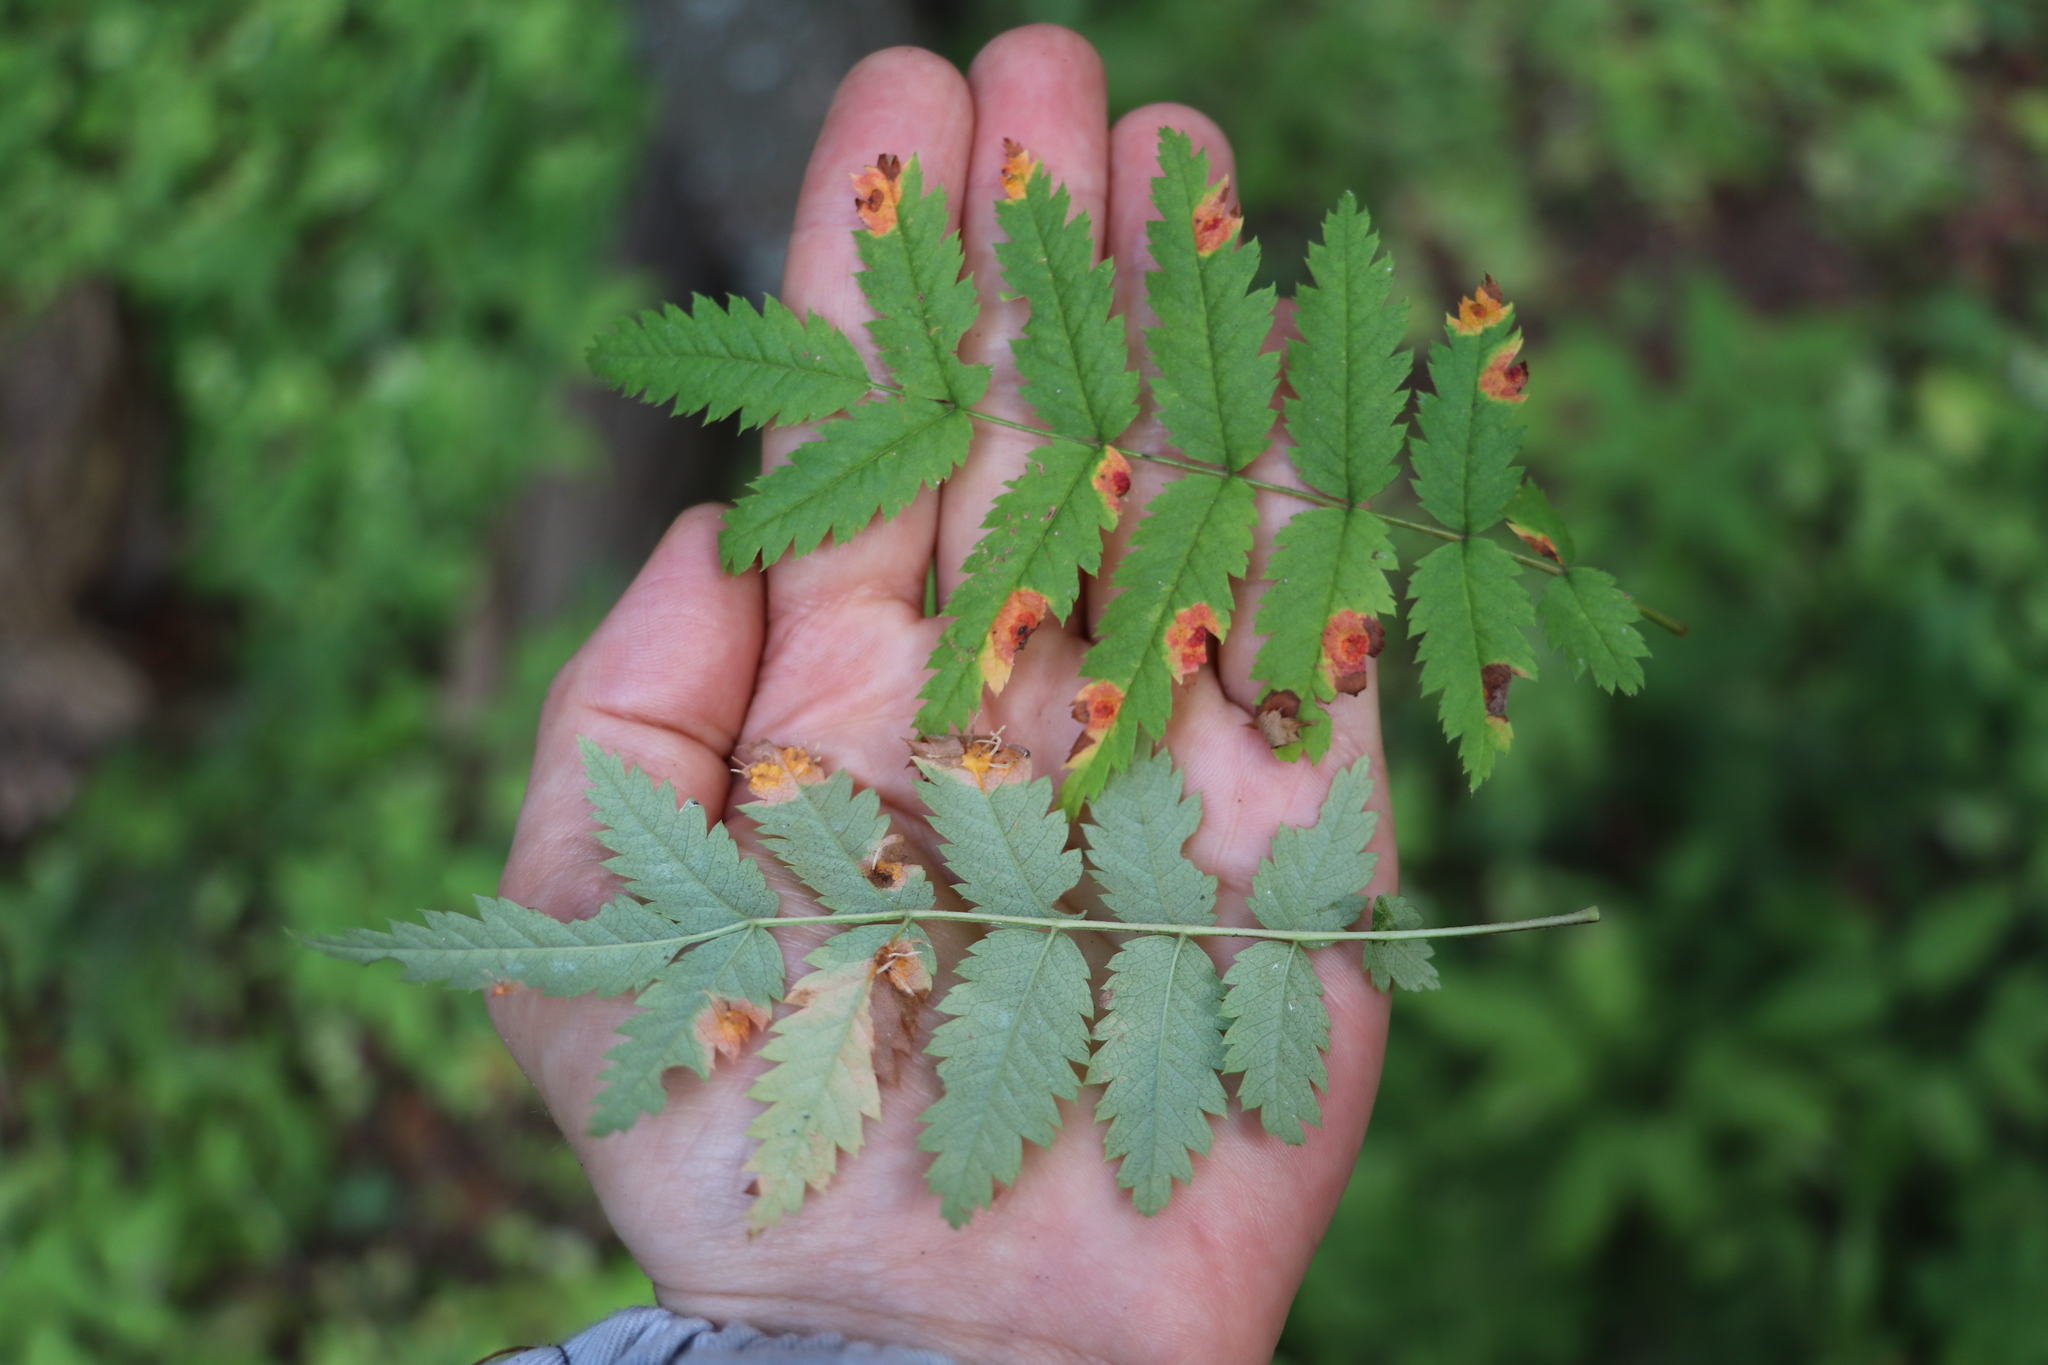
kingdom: Fungi
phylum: Basidiomycota
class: Pucciniomycetes
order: Pucciniales
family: Gymnosporangiaceae
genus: Gymnosporangium
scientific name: Gymnosporangium cornutum
